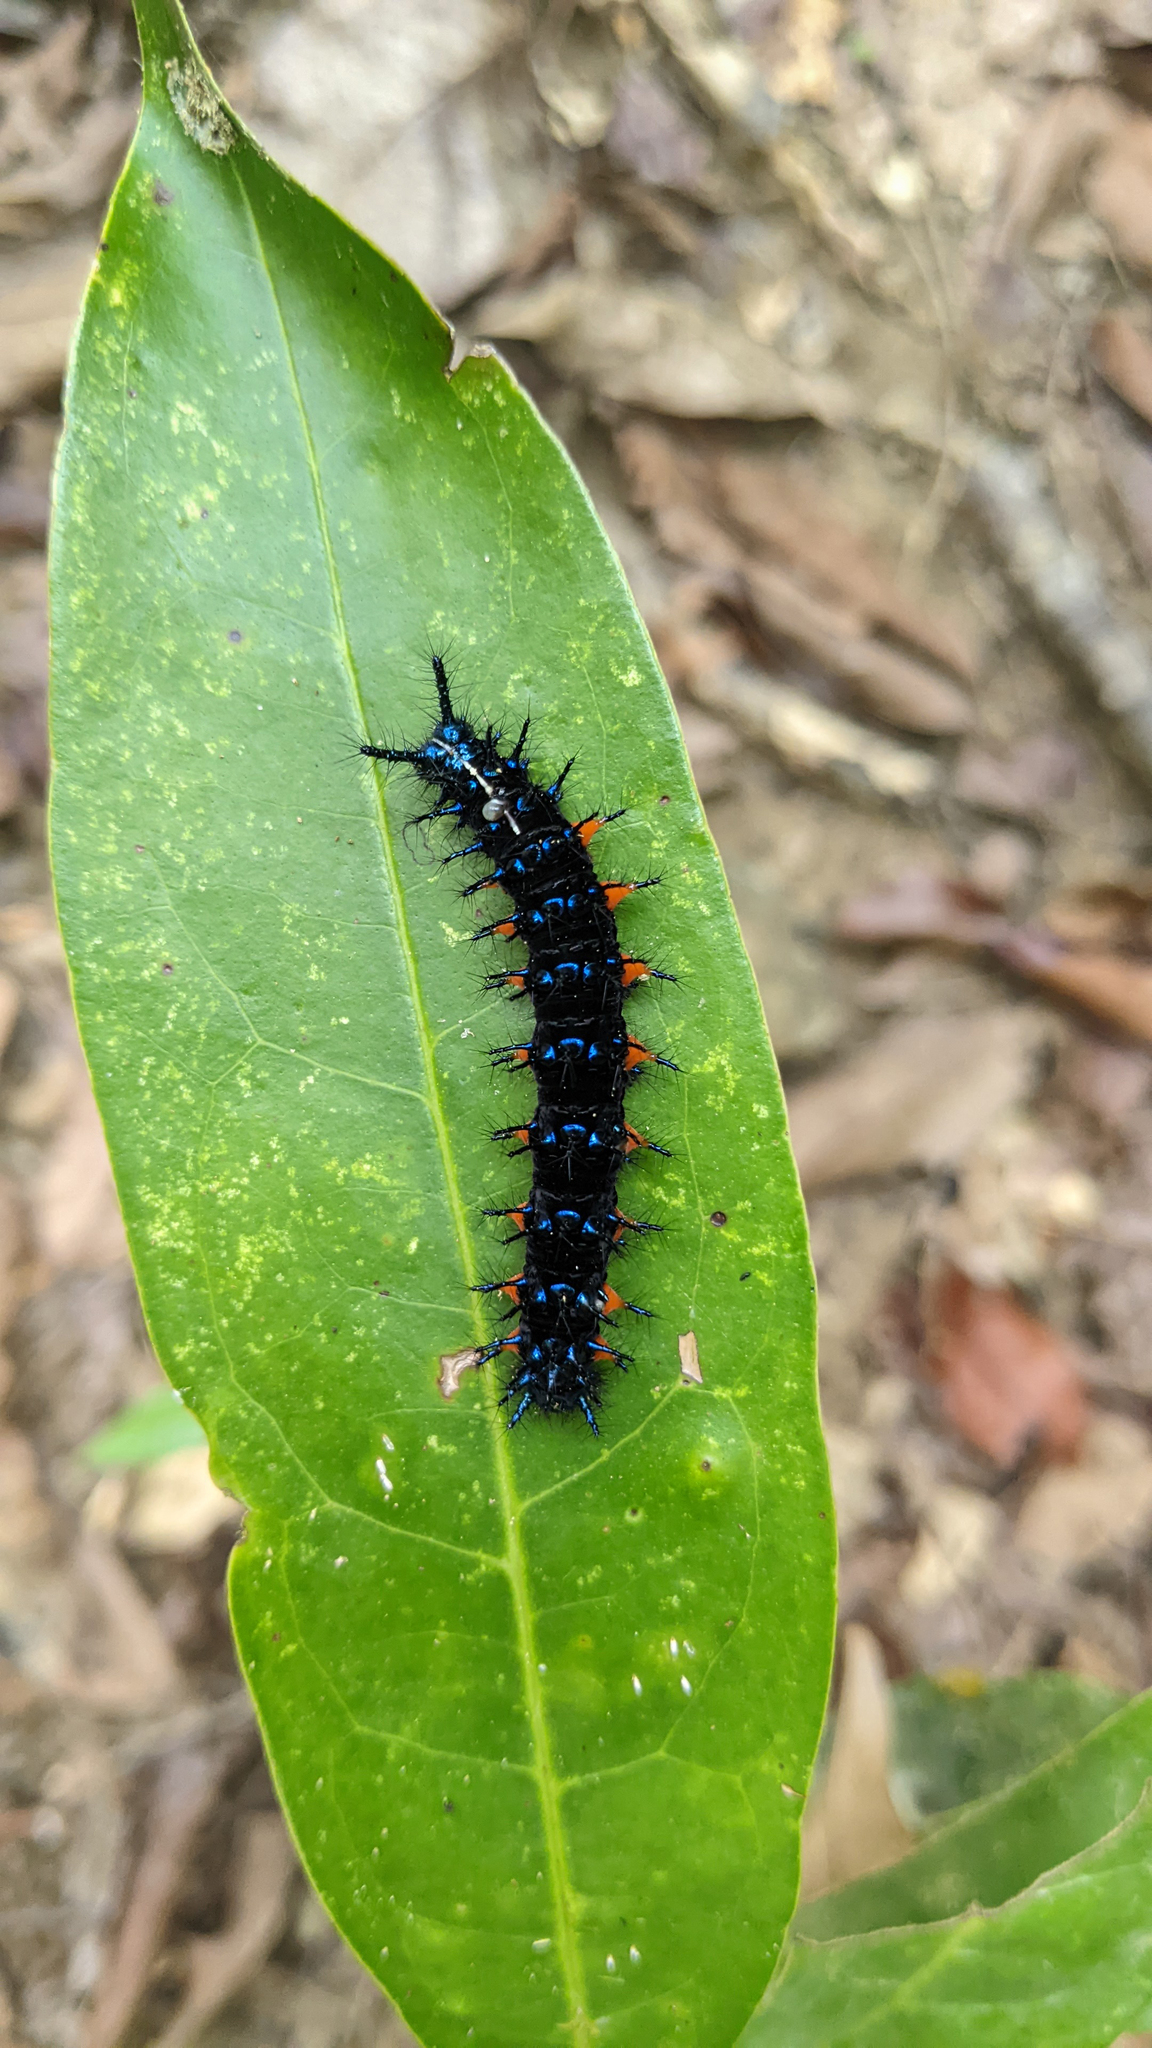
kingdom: Animalia
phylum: Arthropoda
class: Insecta
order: Lepidoptera
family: Nymphalidae
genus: Doleschallia
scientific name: Doleschallia bisaltide
